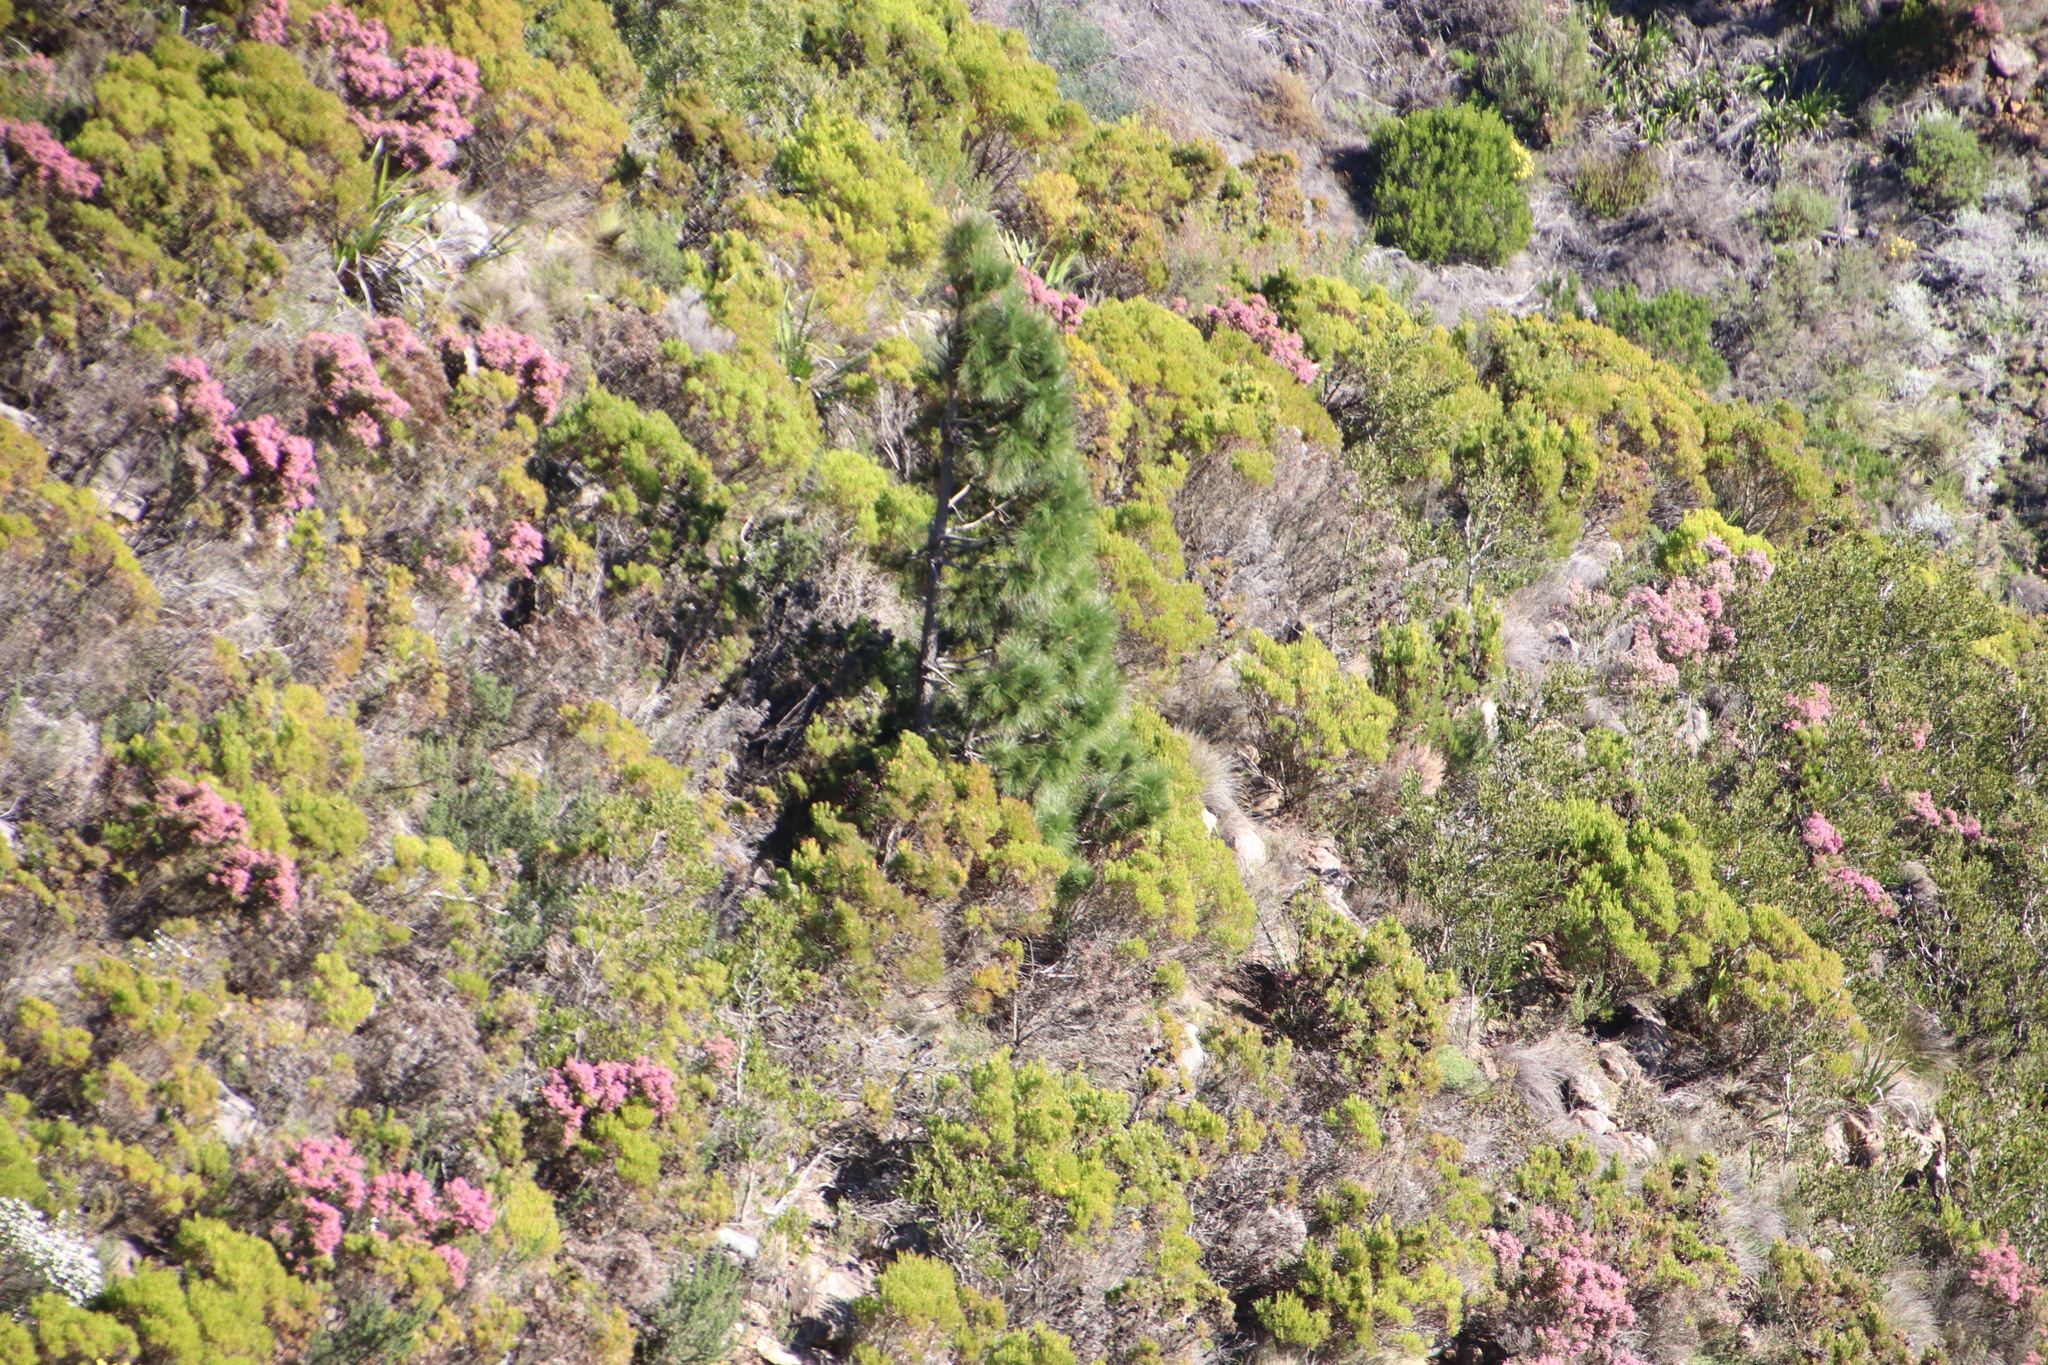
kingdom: Plantae
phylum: Tracheophyta
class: Pinopsida
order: Pinales
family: Pinaceae
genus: Pinus
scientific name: Pinus canariensis
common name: Canary islands pine
